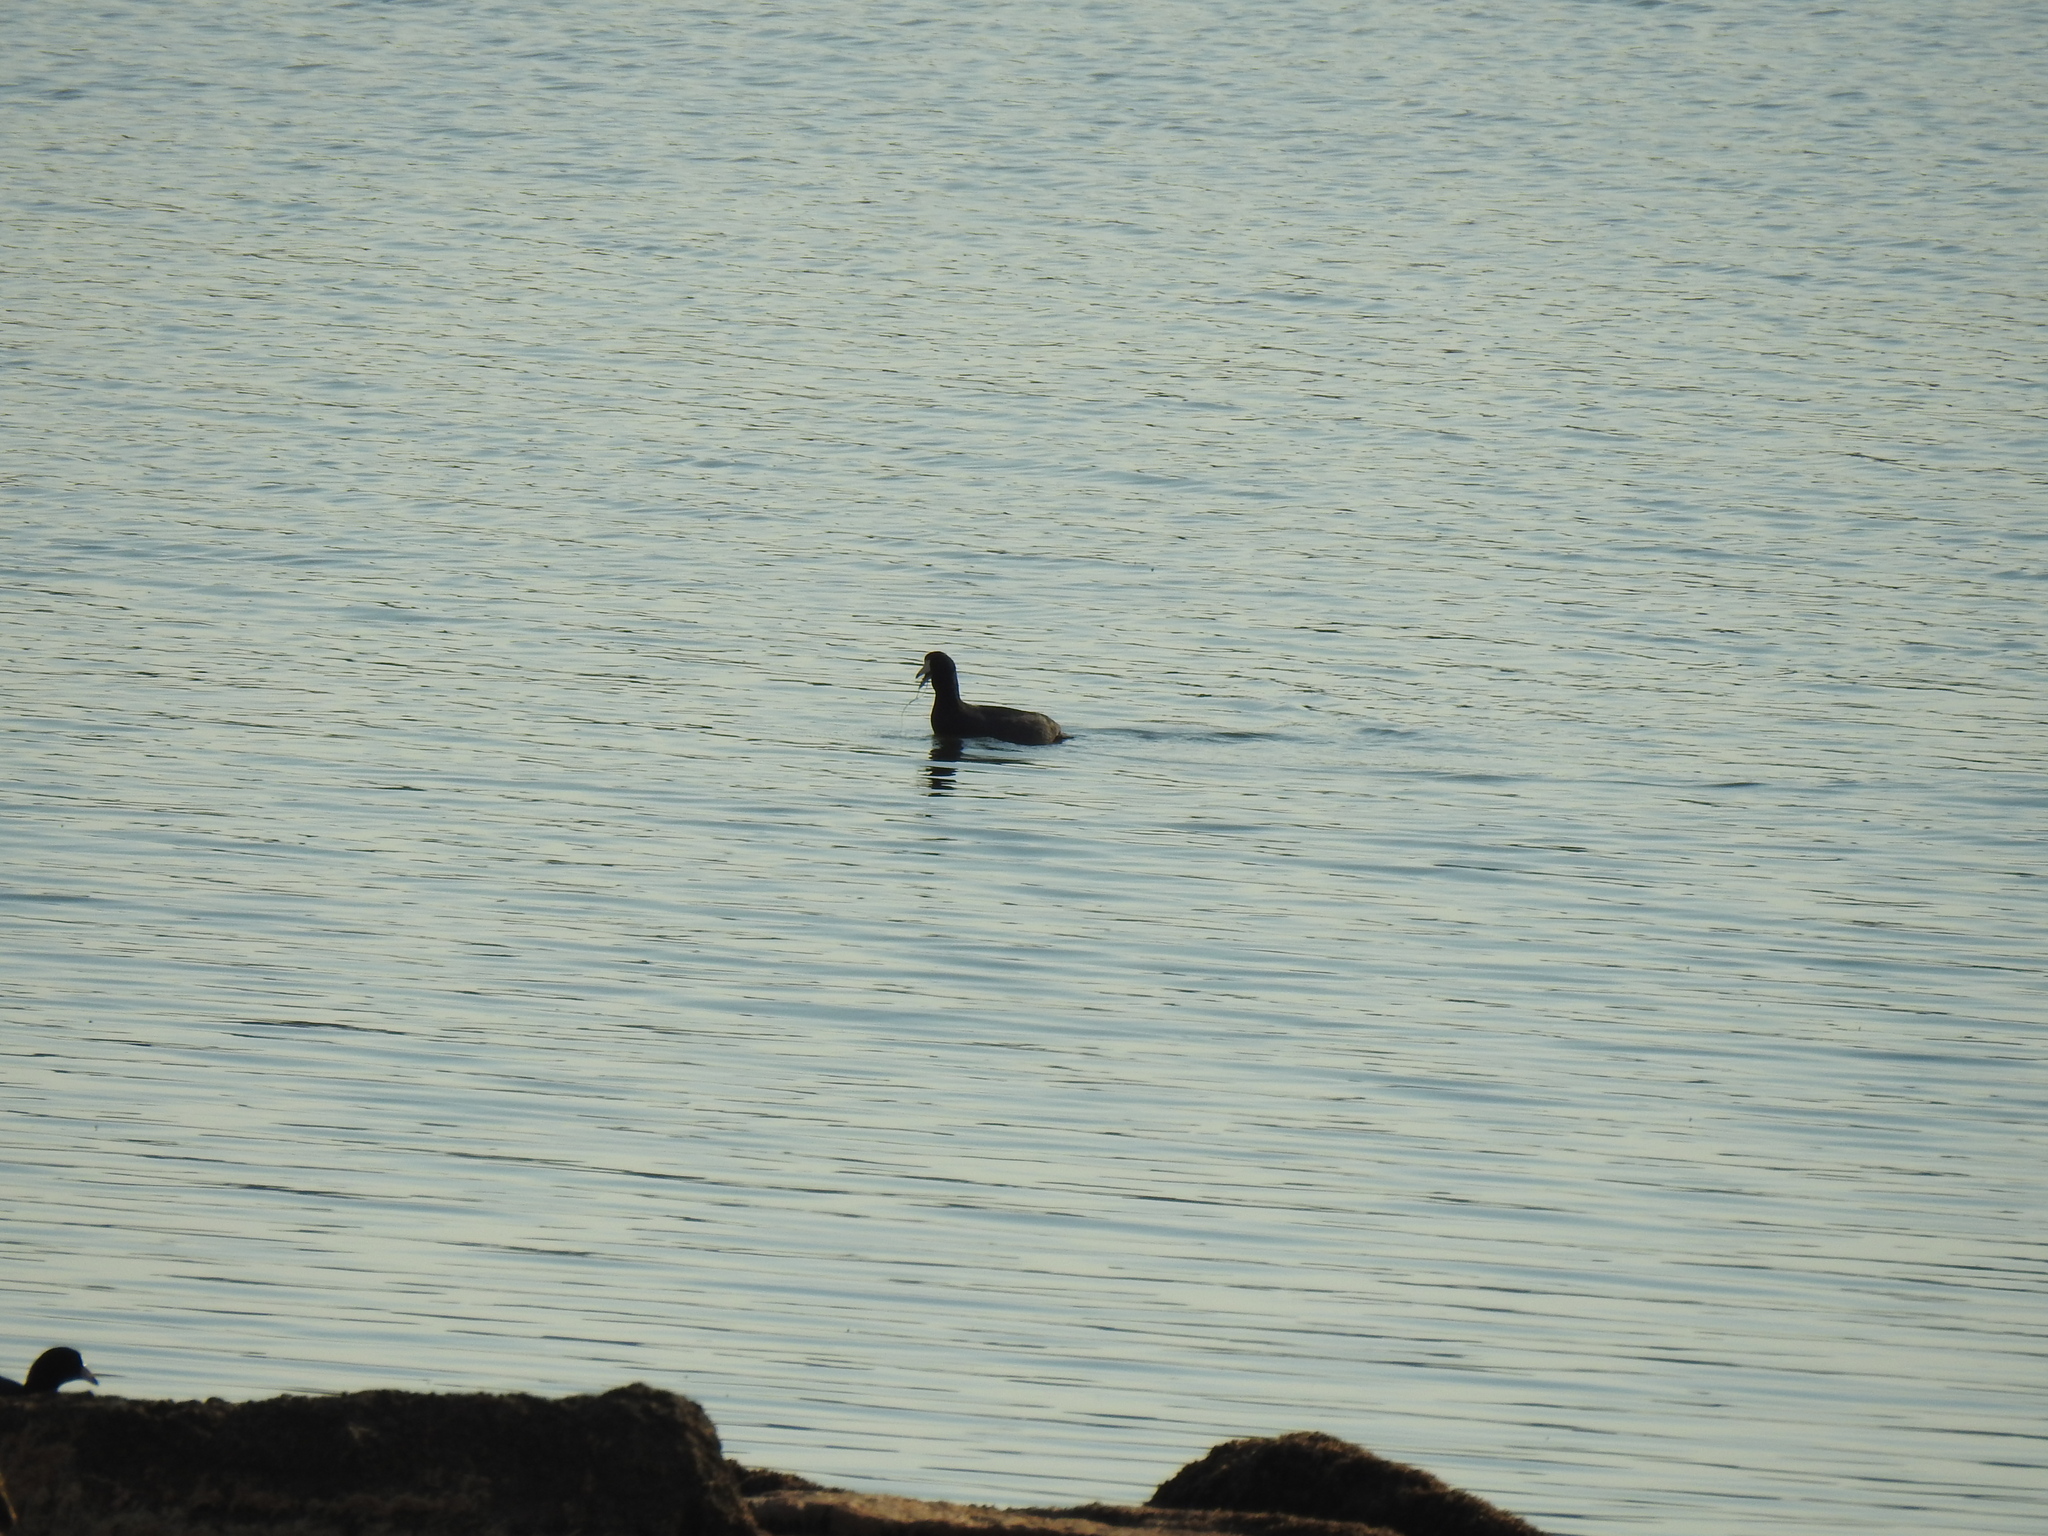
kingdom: Animalia
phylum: Chordata
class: Aves
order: Gruiformes
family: Rallidae
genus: Fulica
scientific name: Fulica americana
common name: American coot
